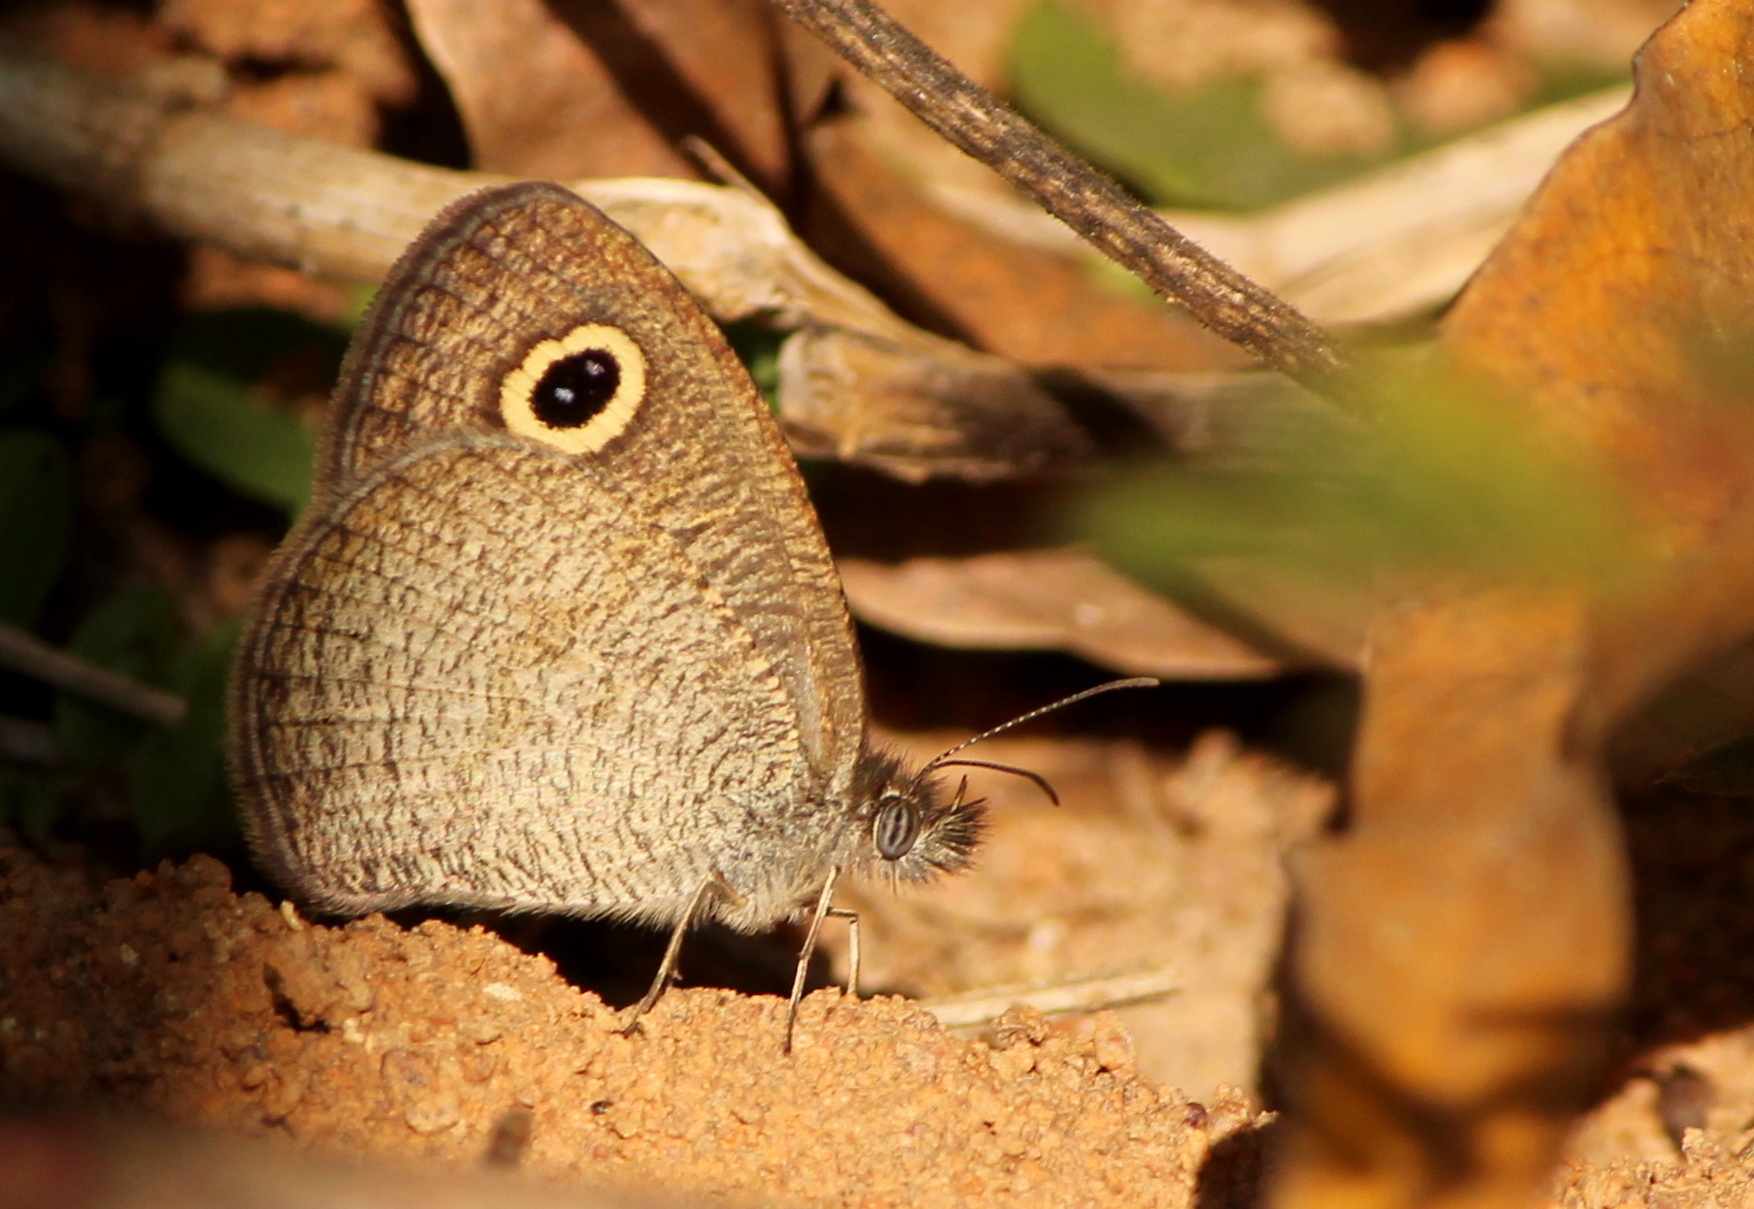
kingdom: Animalia
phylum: Arthropoda
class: Insecta
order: Lepidoptera
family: Nymphalidae
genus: Ypthima
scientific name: Ypthima huebneri
